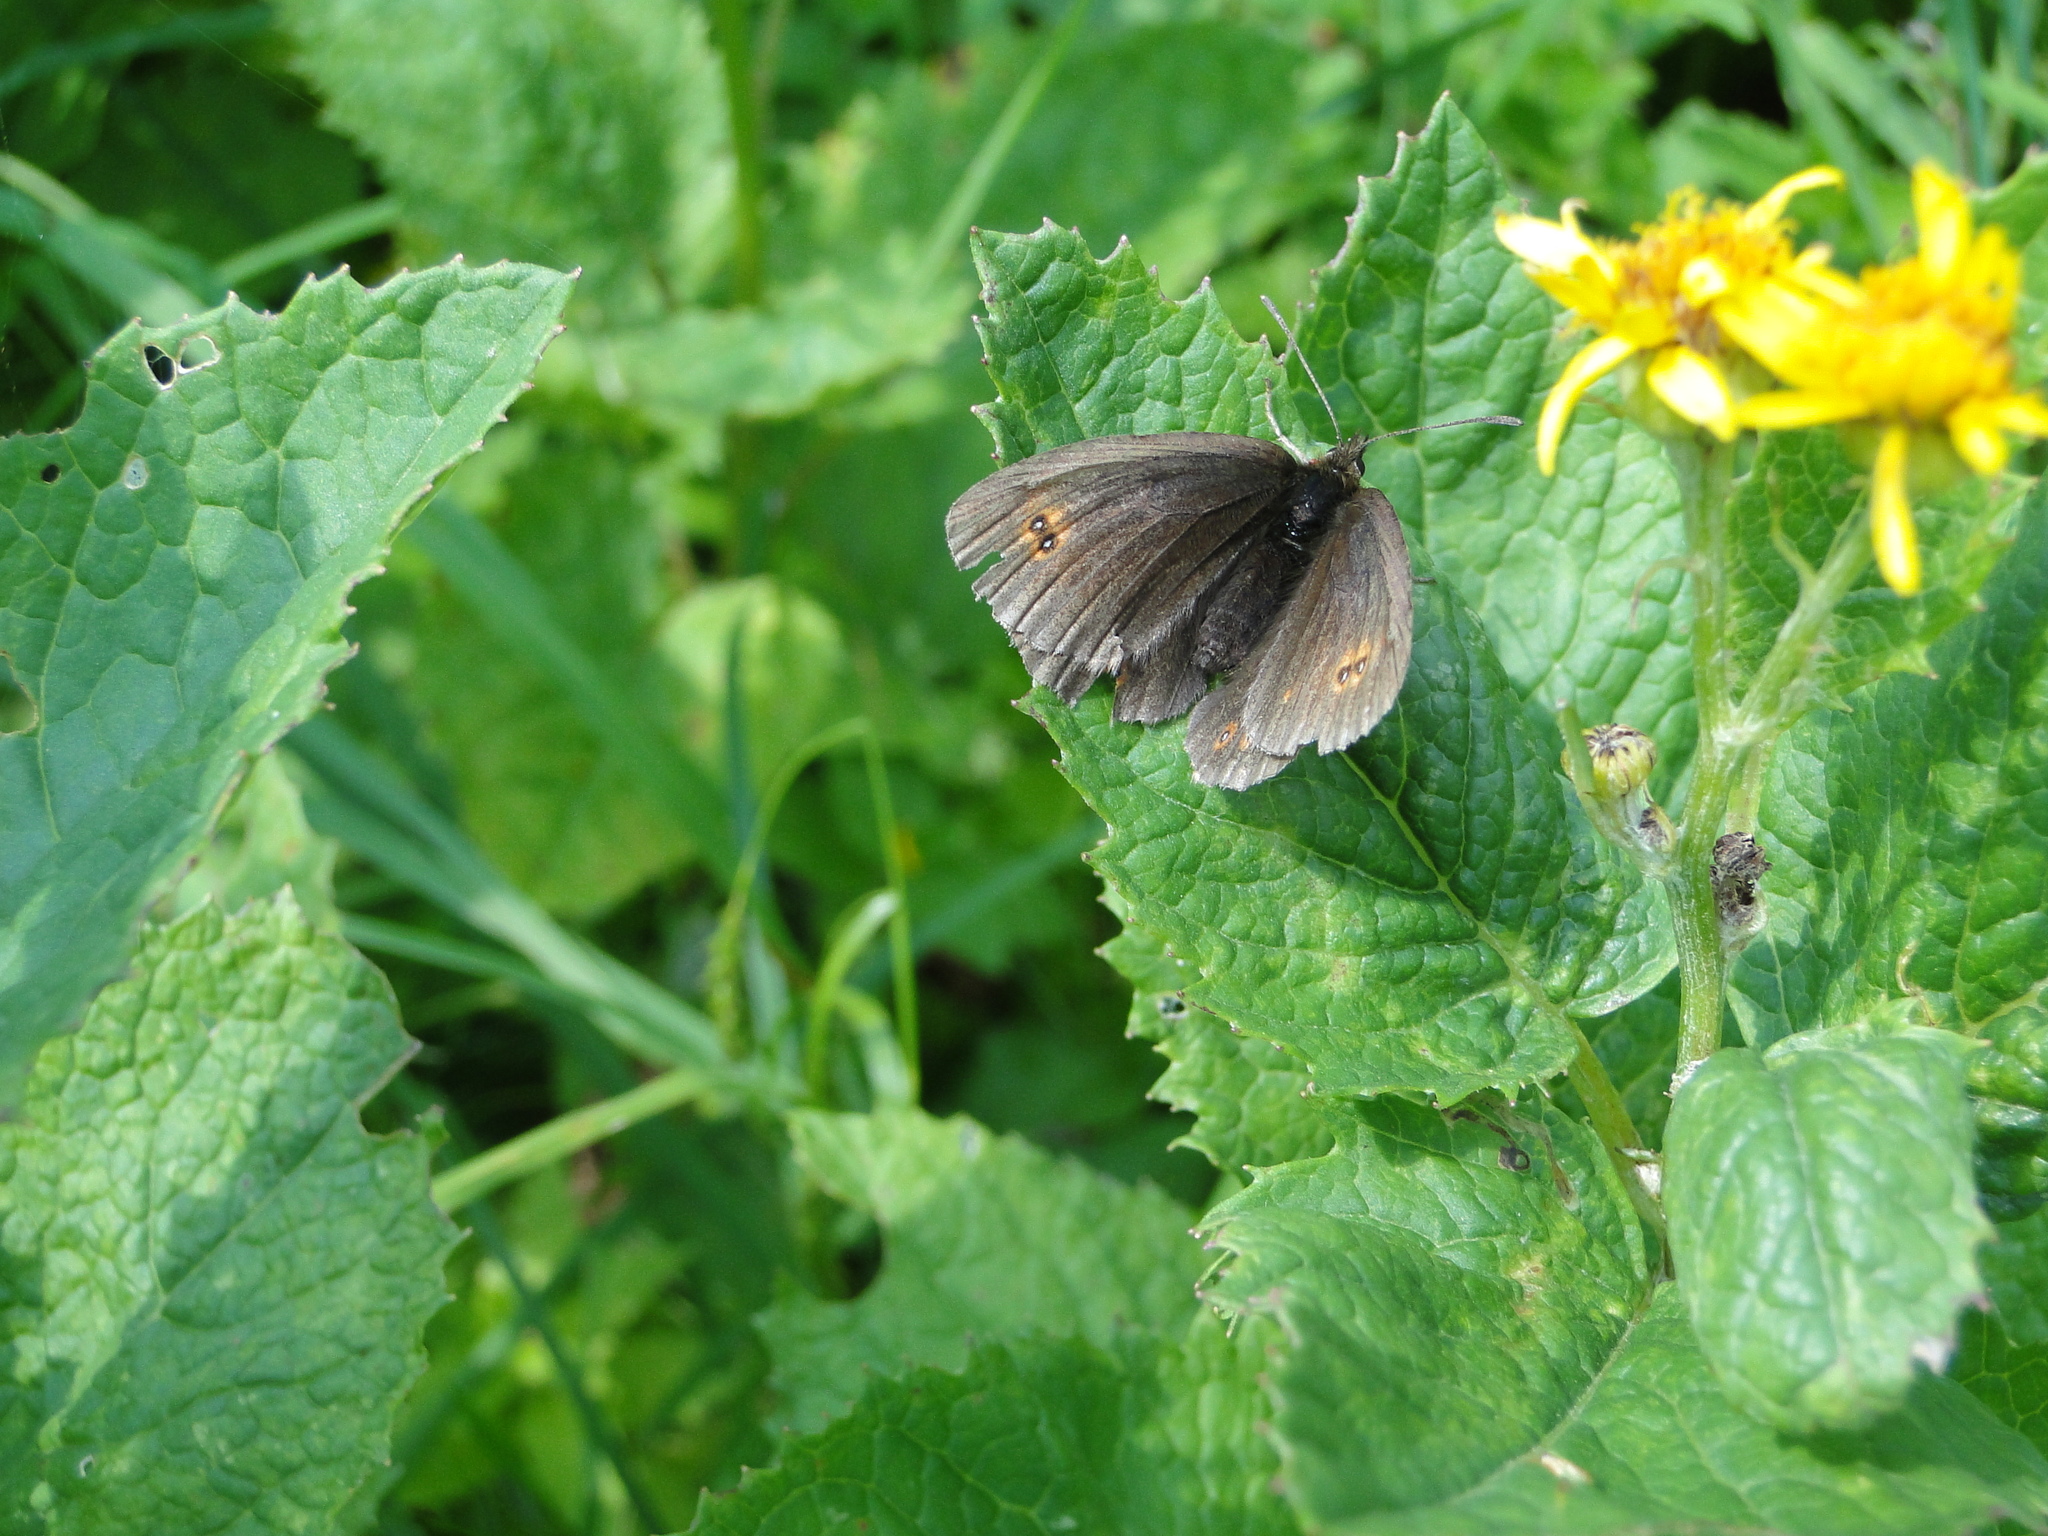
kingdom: Animalia
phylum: Arthropoda
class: Insecta
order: Lepidoptera
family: Nymphalidae
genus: Erebia
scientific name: Erebia oeme
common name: Bright-eyed ringlet
